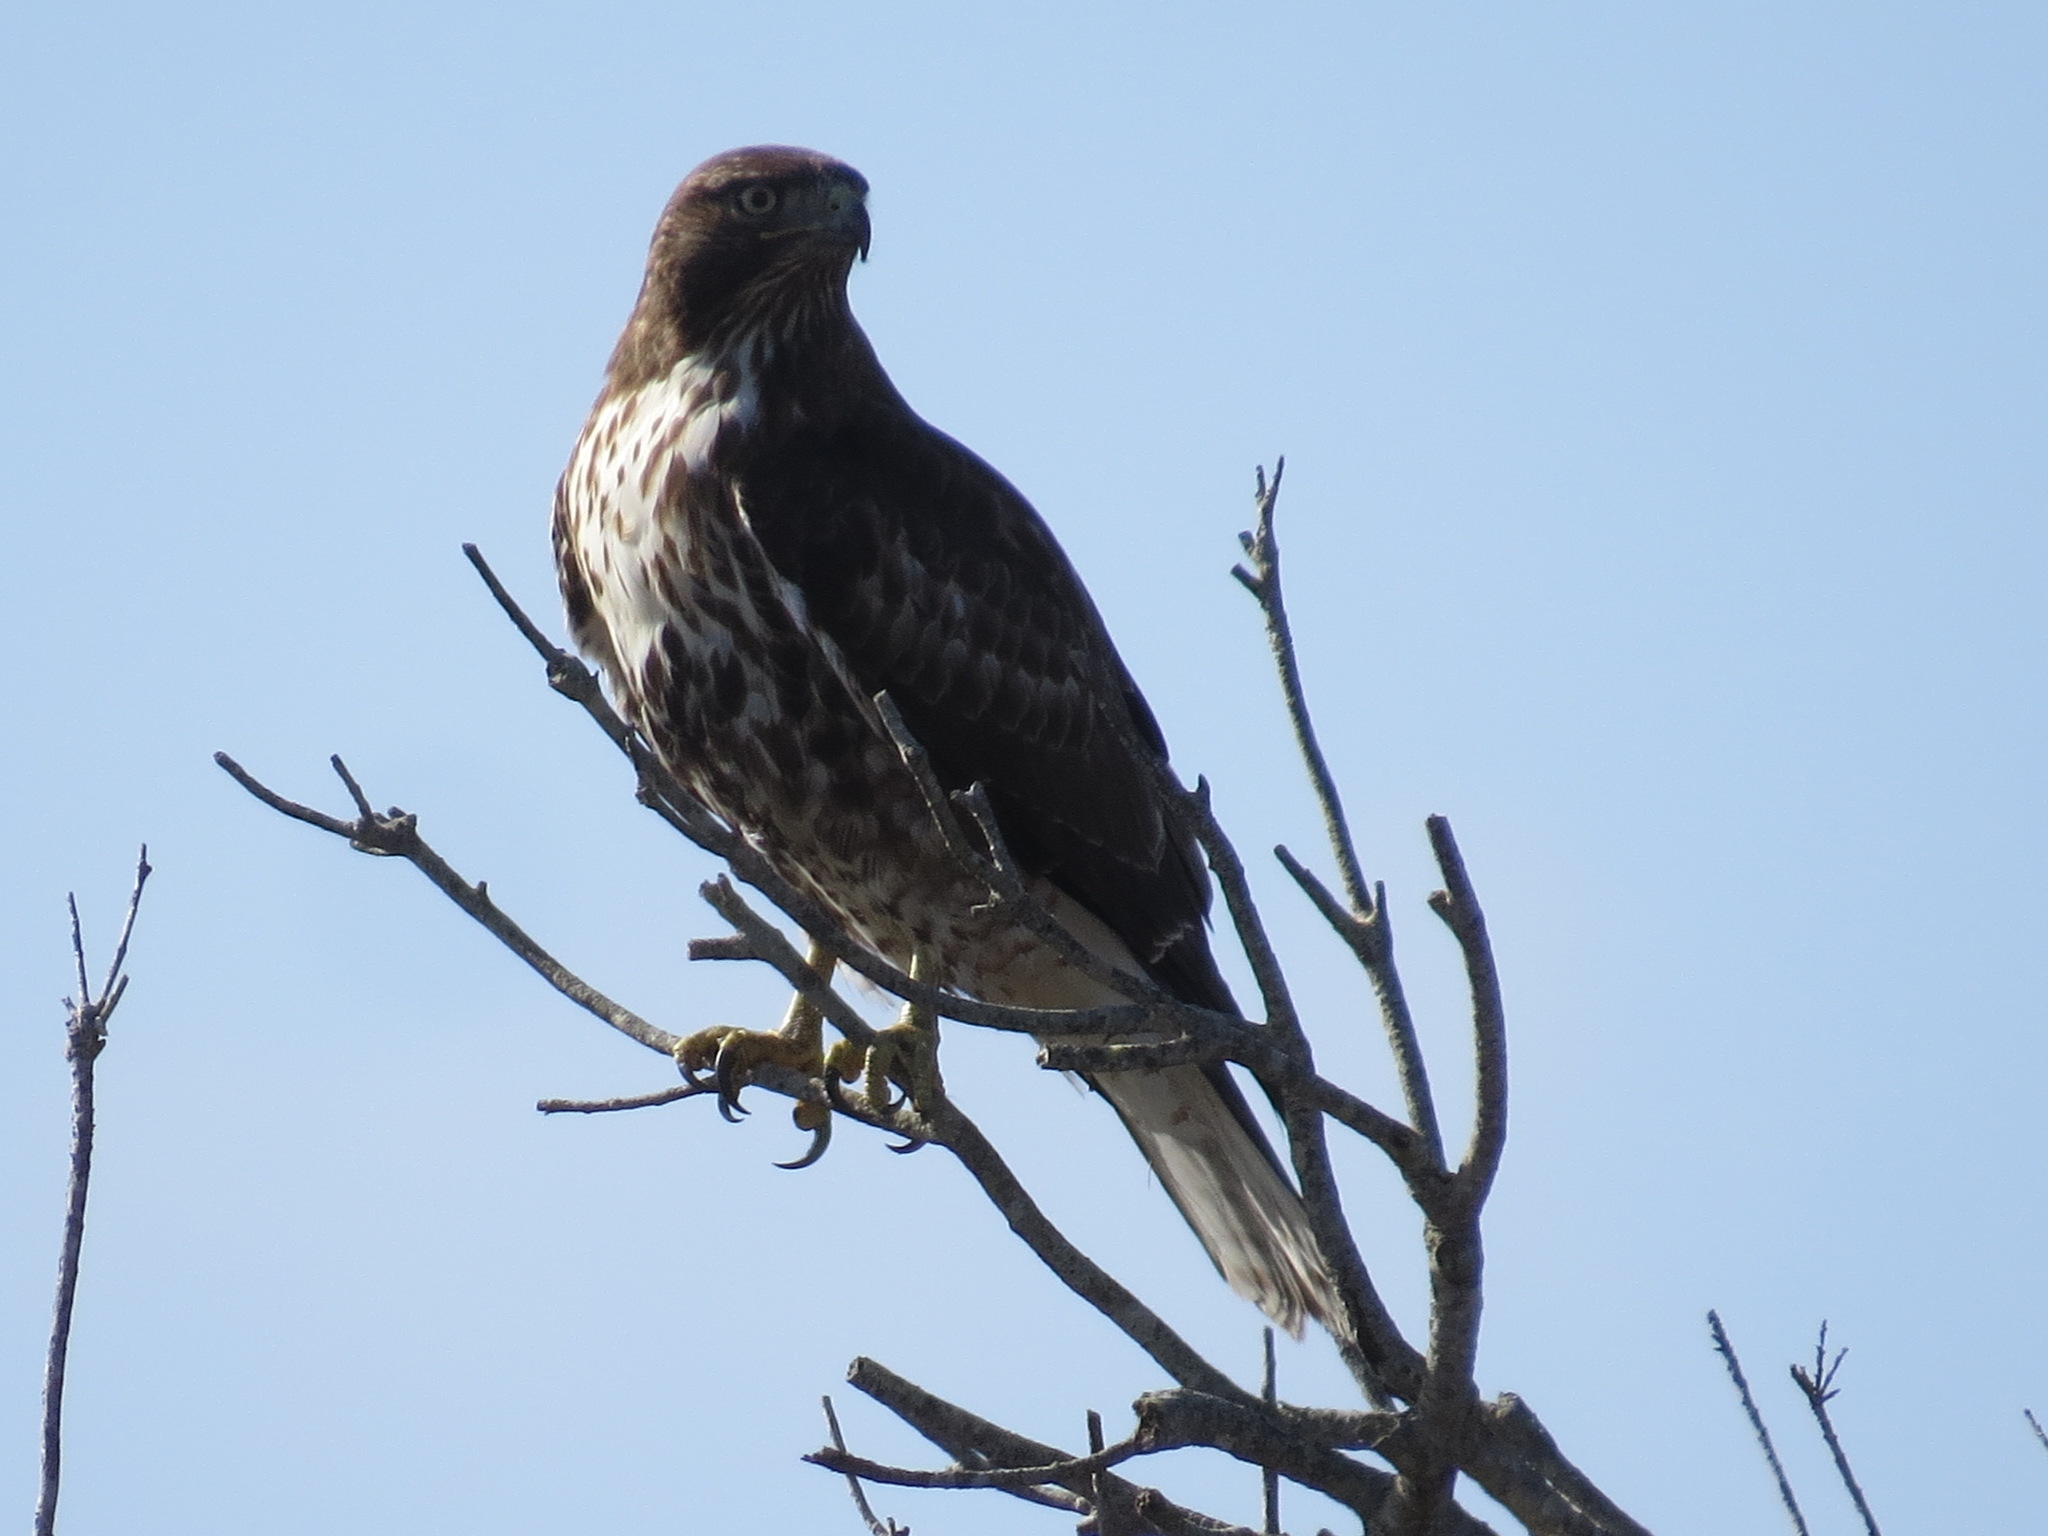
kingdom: Animalia
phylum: Chordata
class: Aves
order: Accipitriformes
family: Accipitridae
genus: Buteo
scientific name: Buteo jamaicensis
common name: Red-tailed hawk
